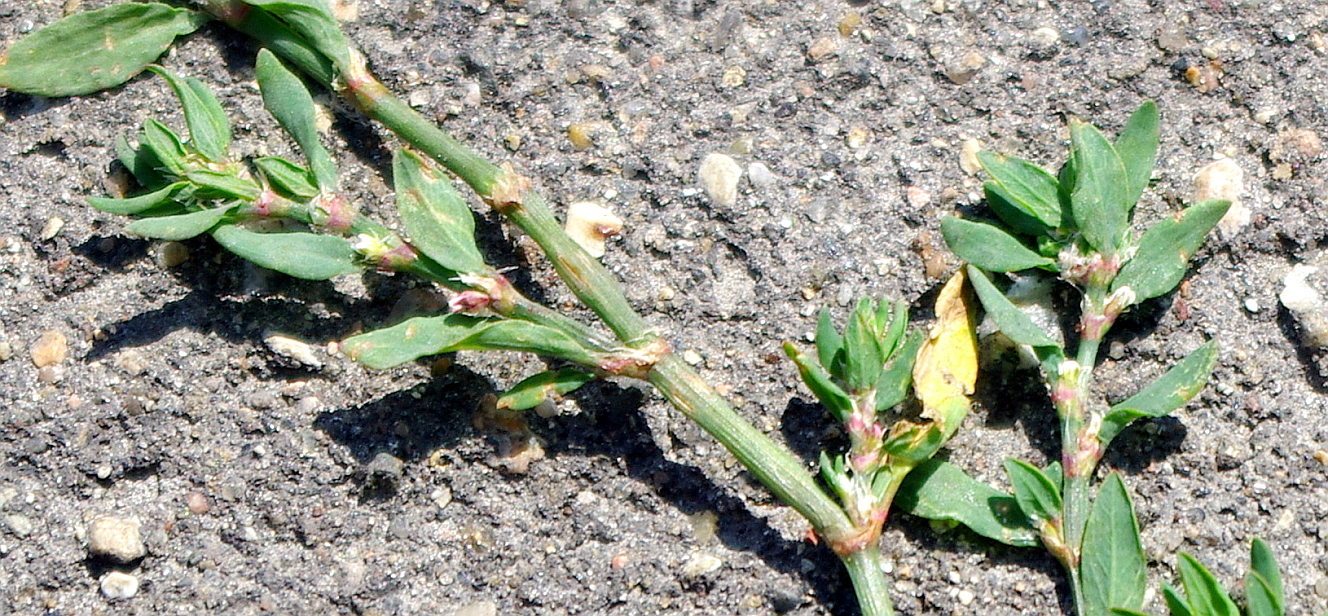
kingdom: Plantae
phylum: Tracheophyta
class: Magnoliopsida
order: Caryophyllales
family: Polygonaceae
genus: Polygonum
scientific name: Polygonum
